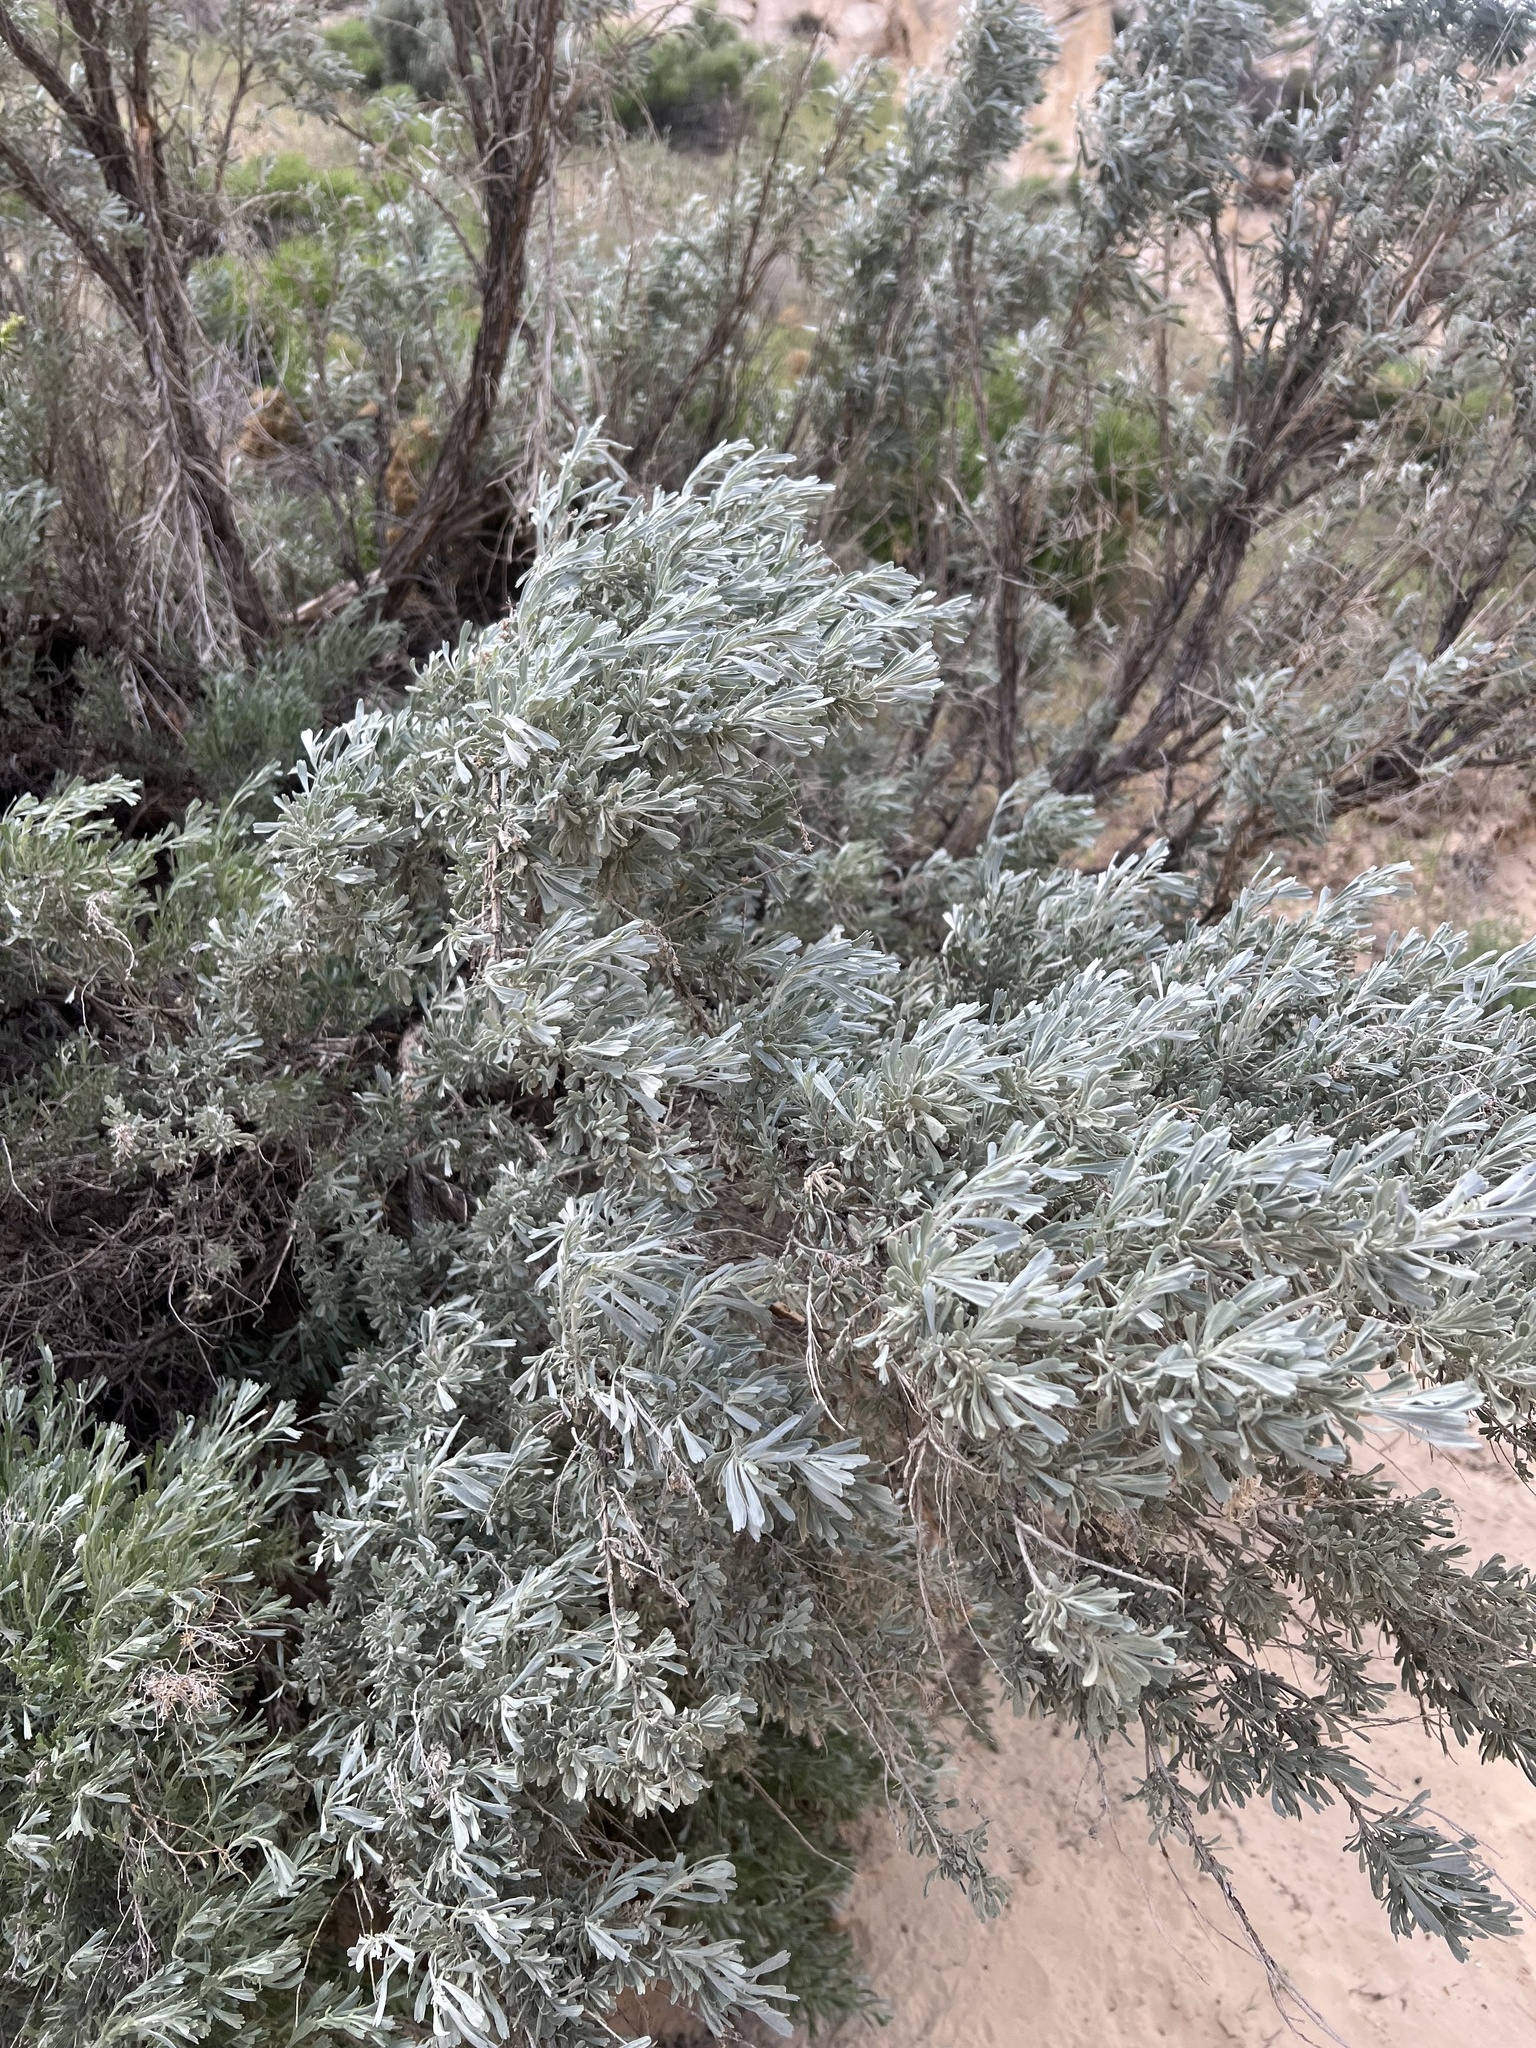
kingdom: Plantae
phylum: Tracheophyta
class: Magnoliopsida
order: Asterales
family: Asteraceae
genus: Artemisia
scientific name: Artemisia tridentata
